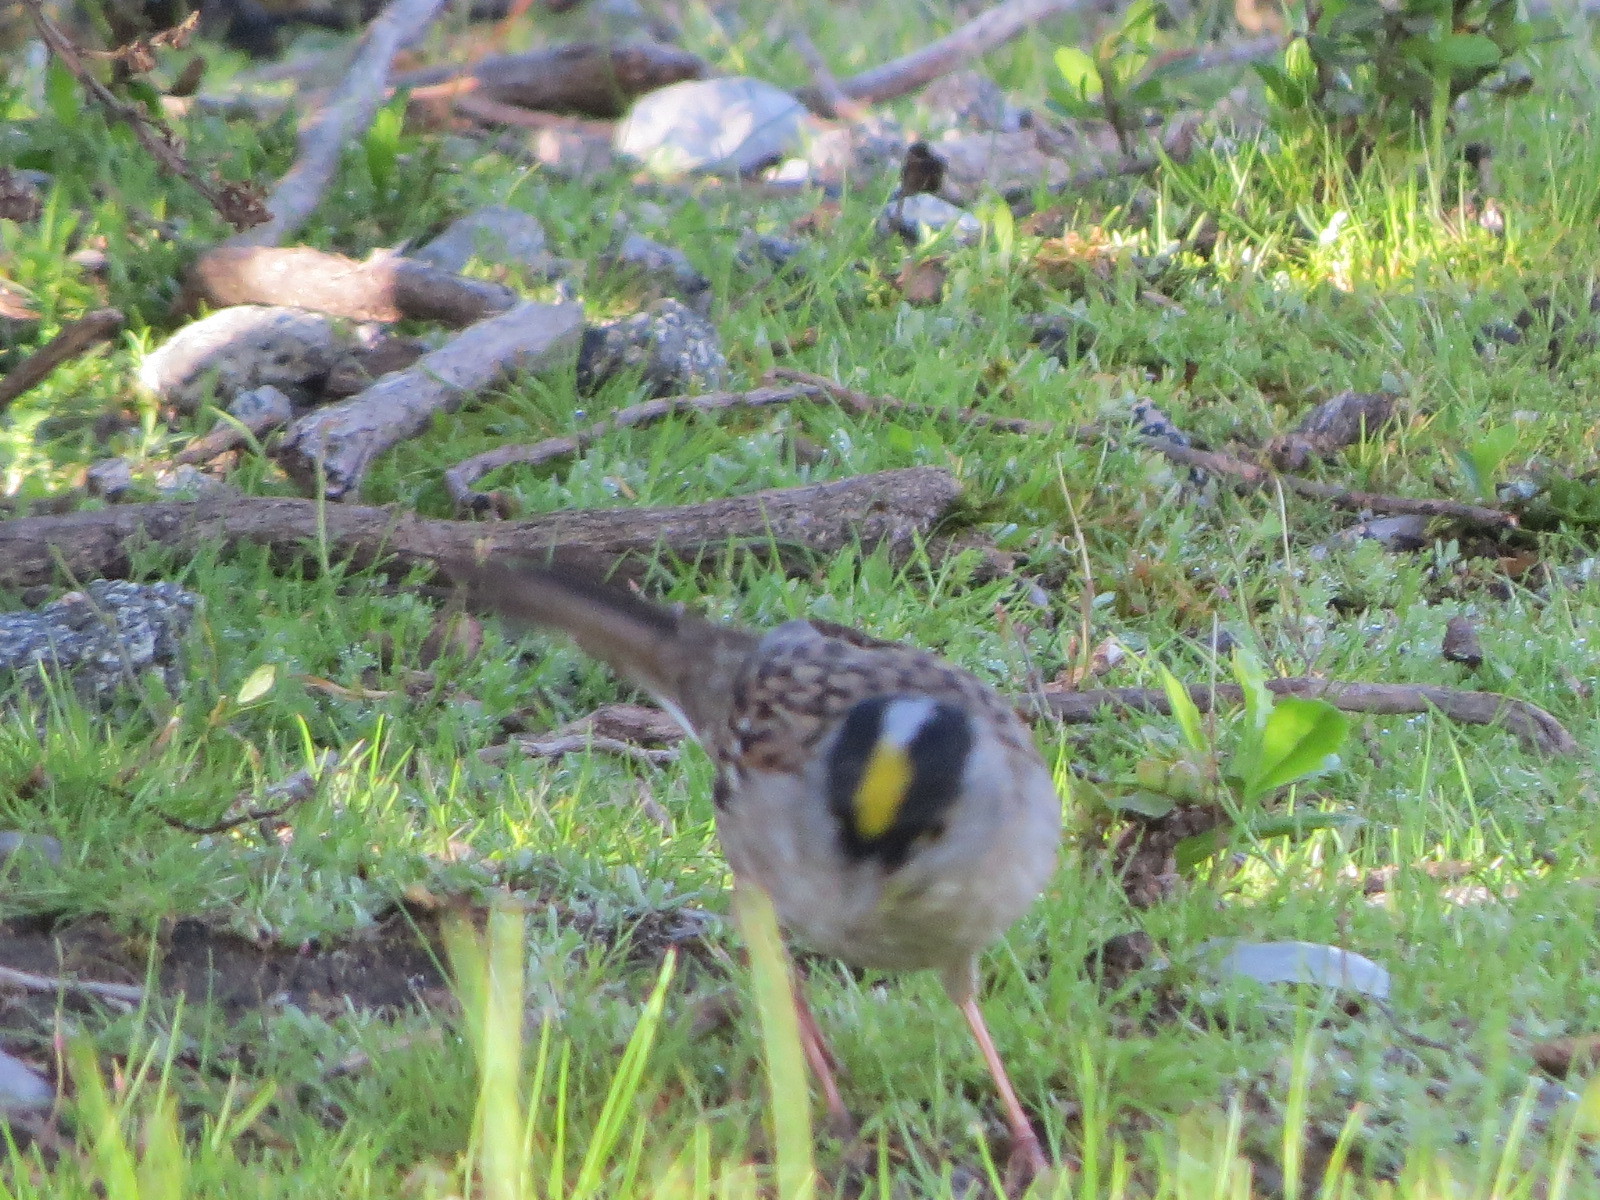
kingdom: Animalia
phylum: Chordata
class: Aves
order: Passeriformes
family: Passerellidae
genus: Zonotrichia
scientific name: Zonotrichia atricapilla
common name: Golden-crowned sparrow
